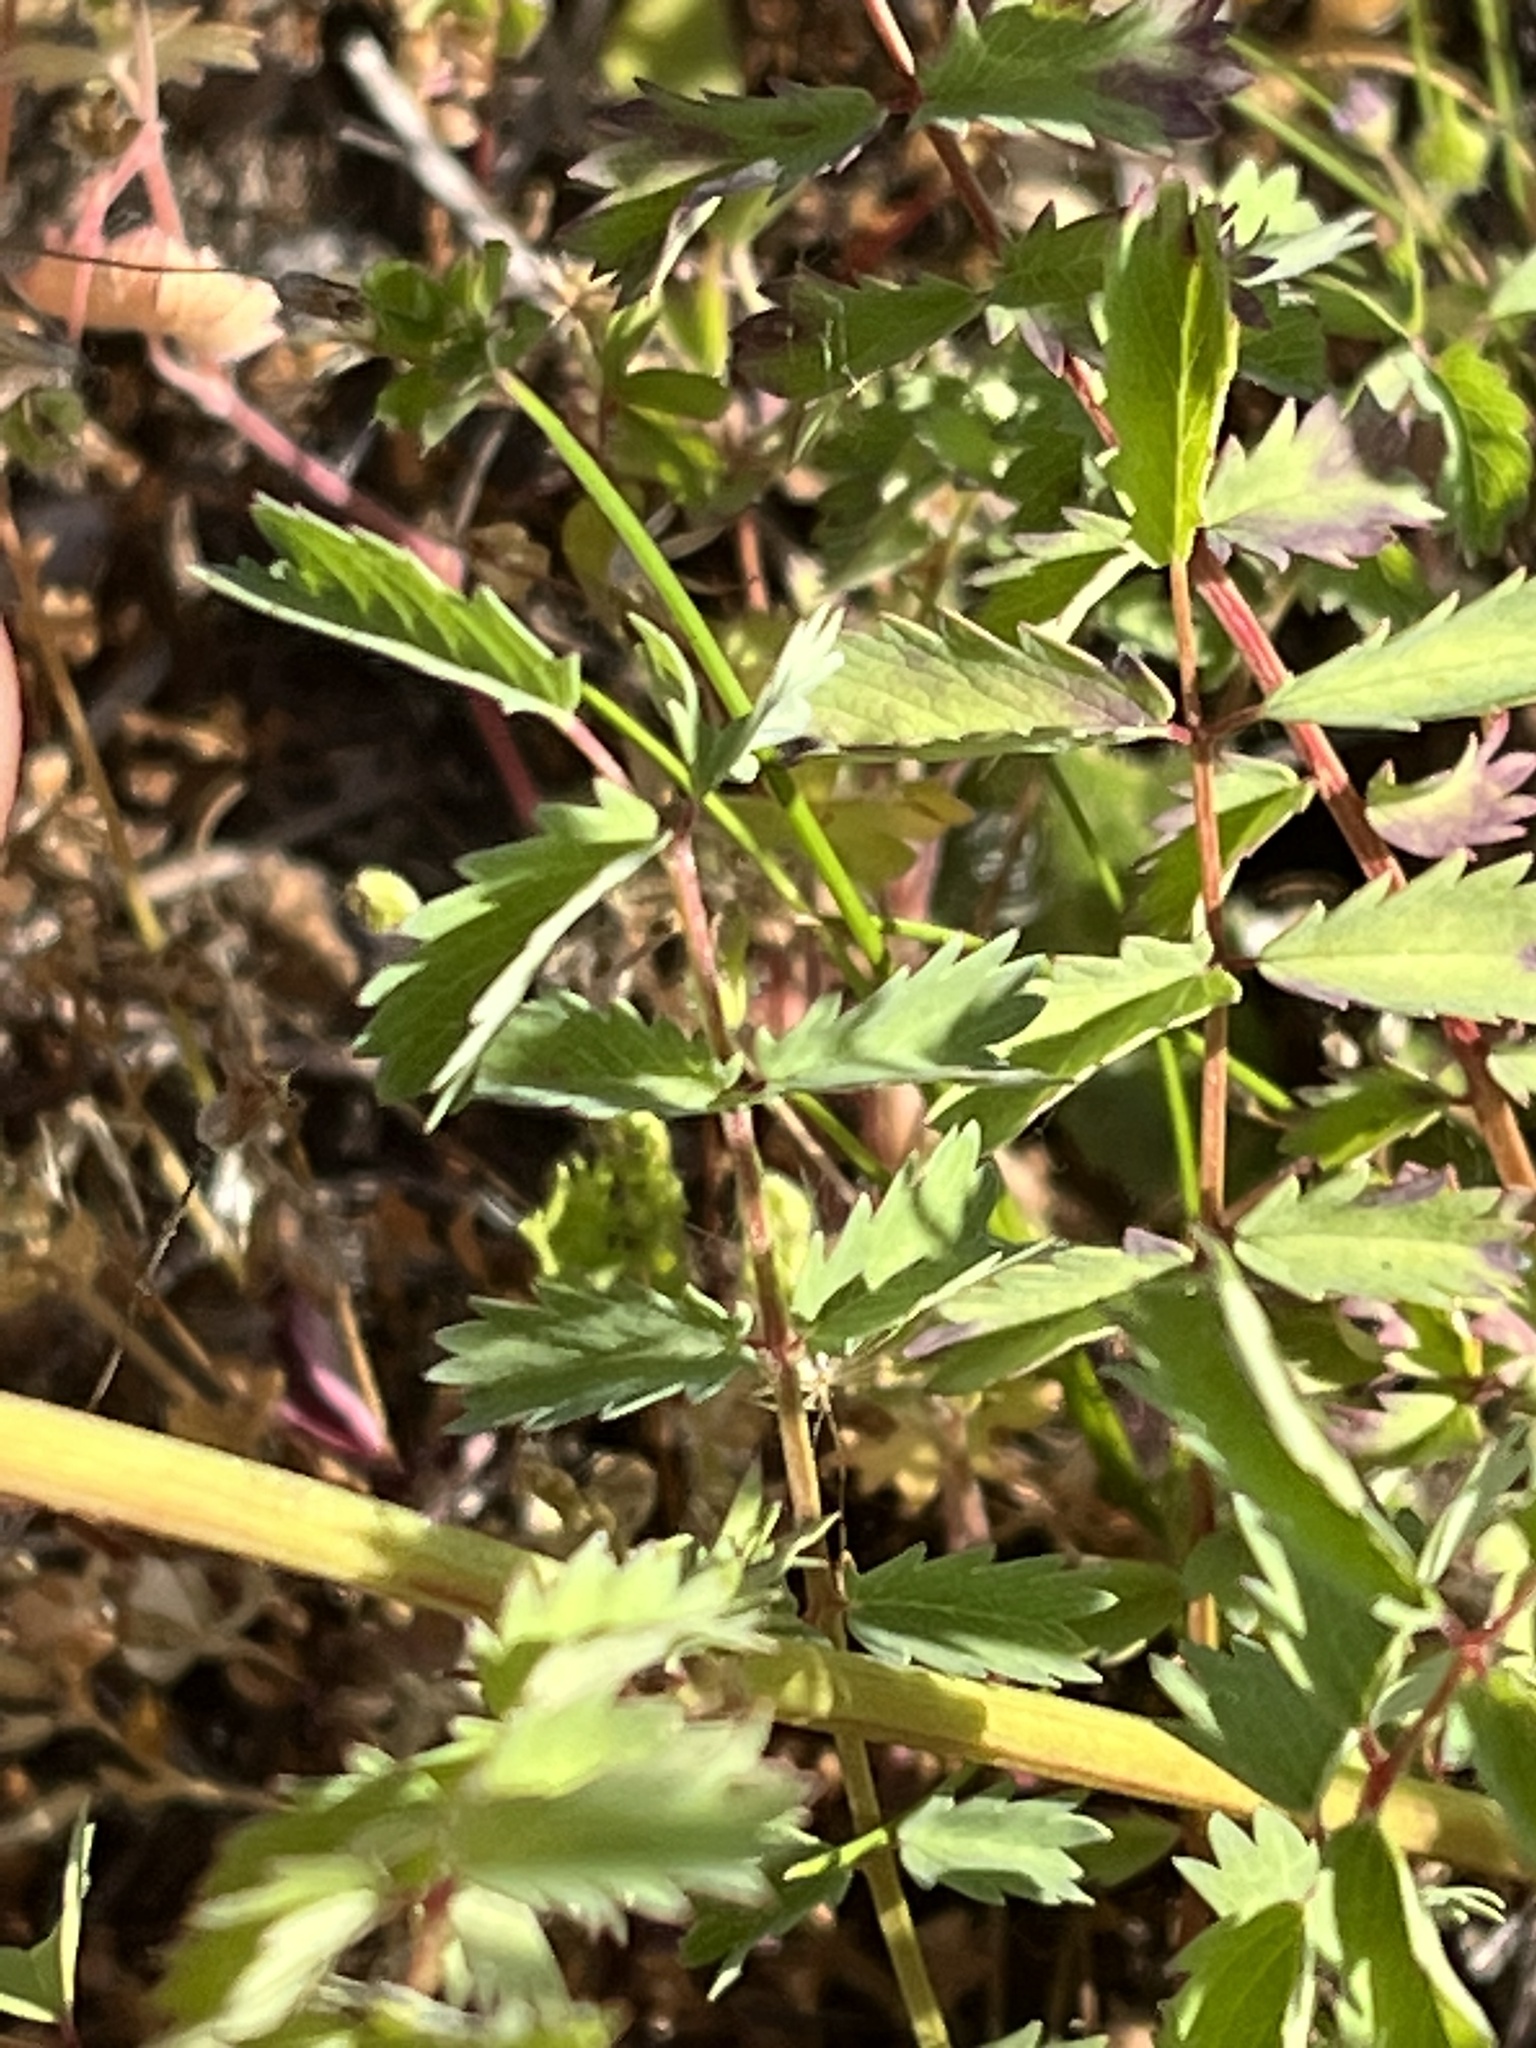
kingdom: Plantae
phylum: Tracheophyta
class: Magnoliopsida
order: Rosales
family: Rosaceae
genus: Poterium
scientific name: Poterium sanguisorba
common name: Salad burnet
